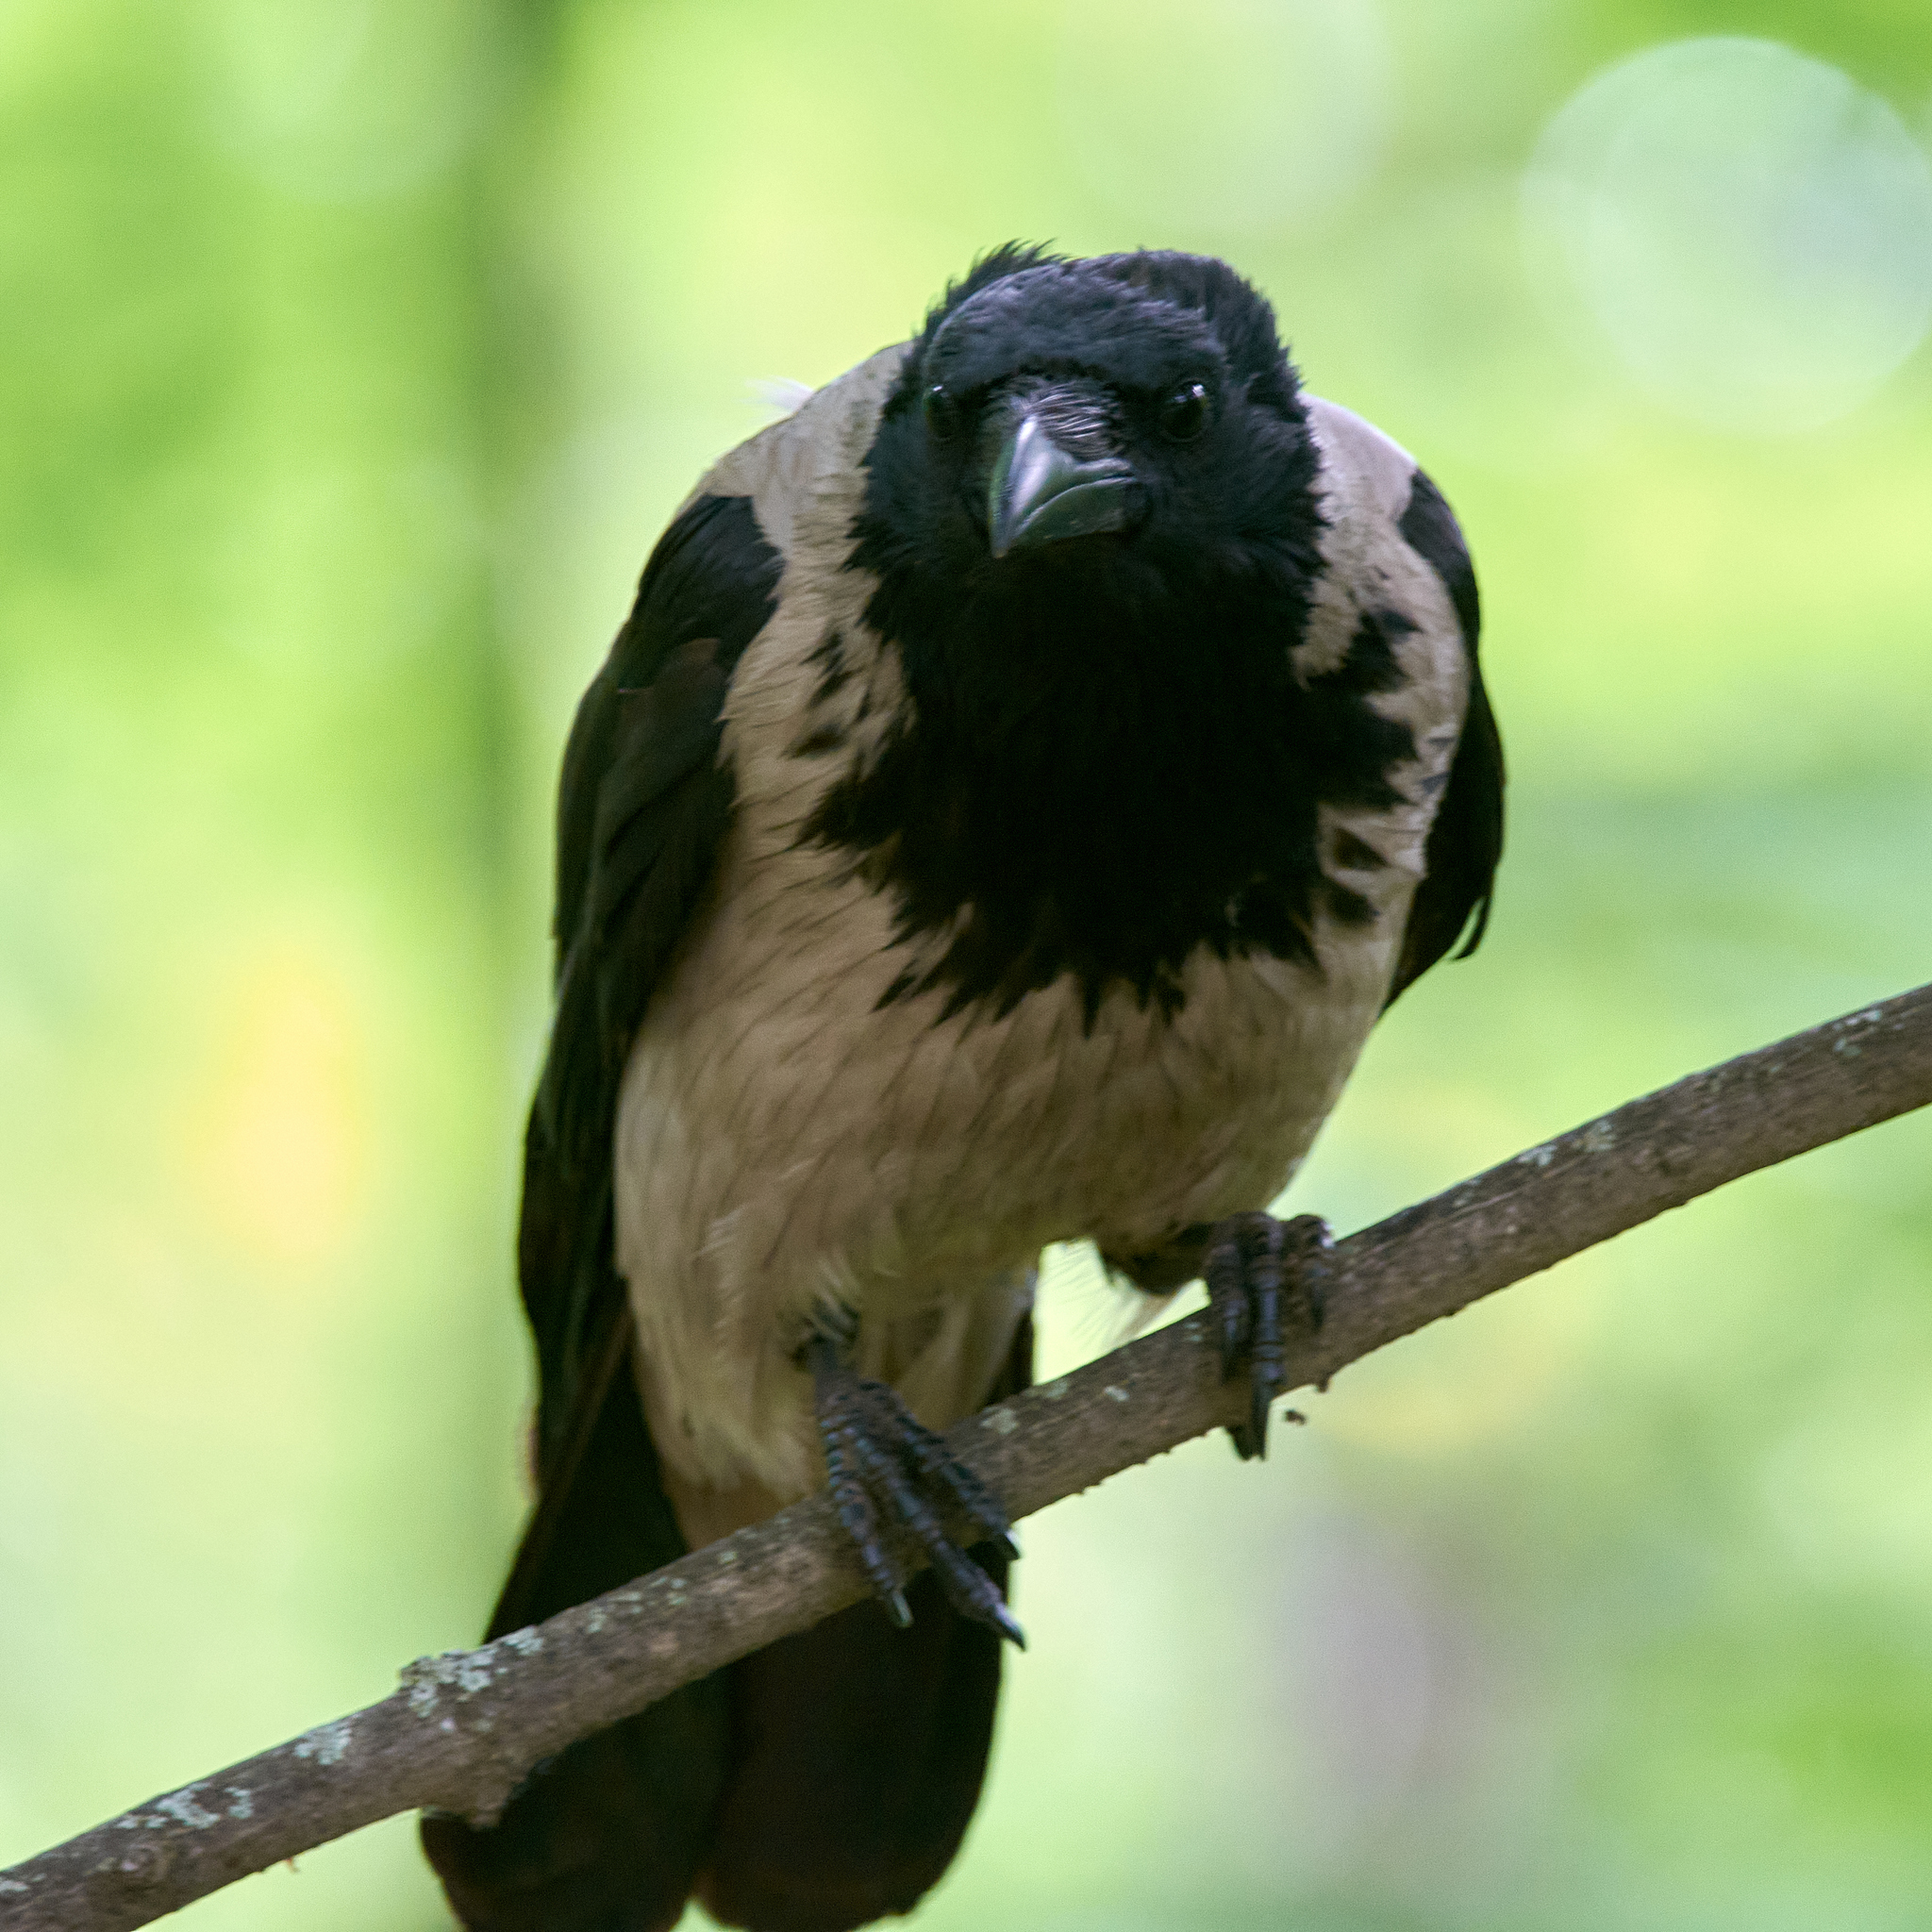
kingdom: Animalia
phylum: Chordata
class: Aves
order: Passeriformes
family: Corvidae
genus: Corvus
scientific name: Corvus cornix
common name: Hooded crow
